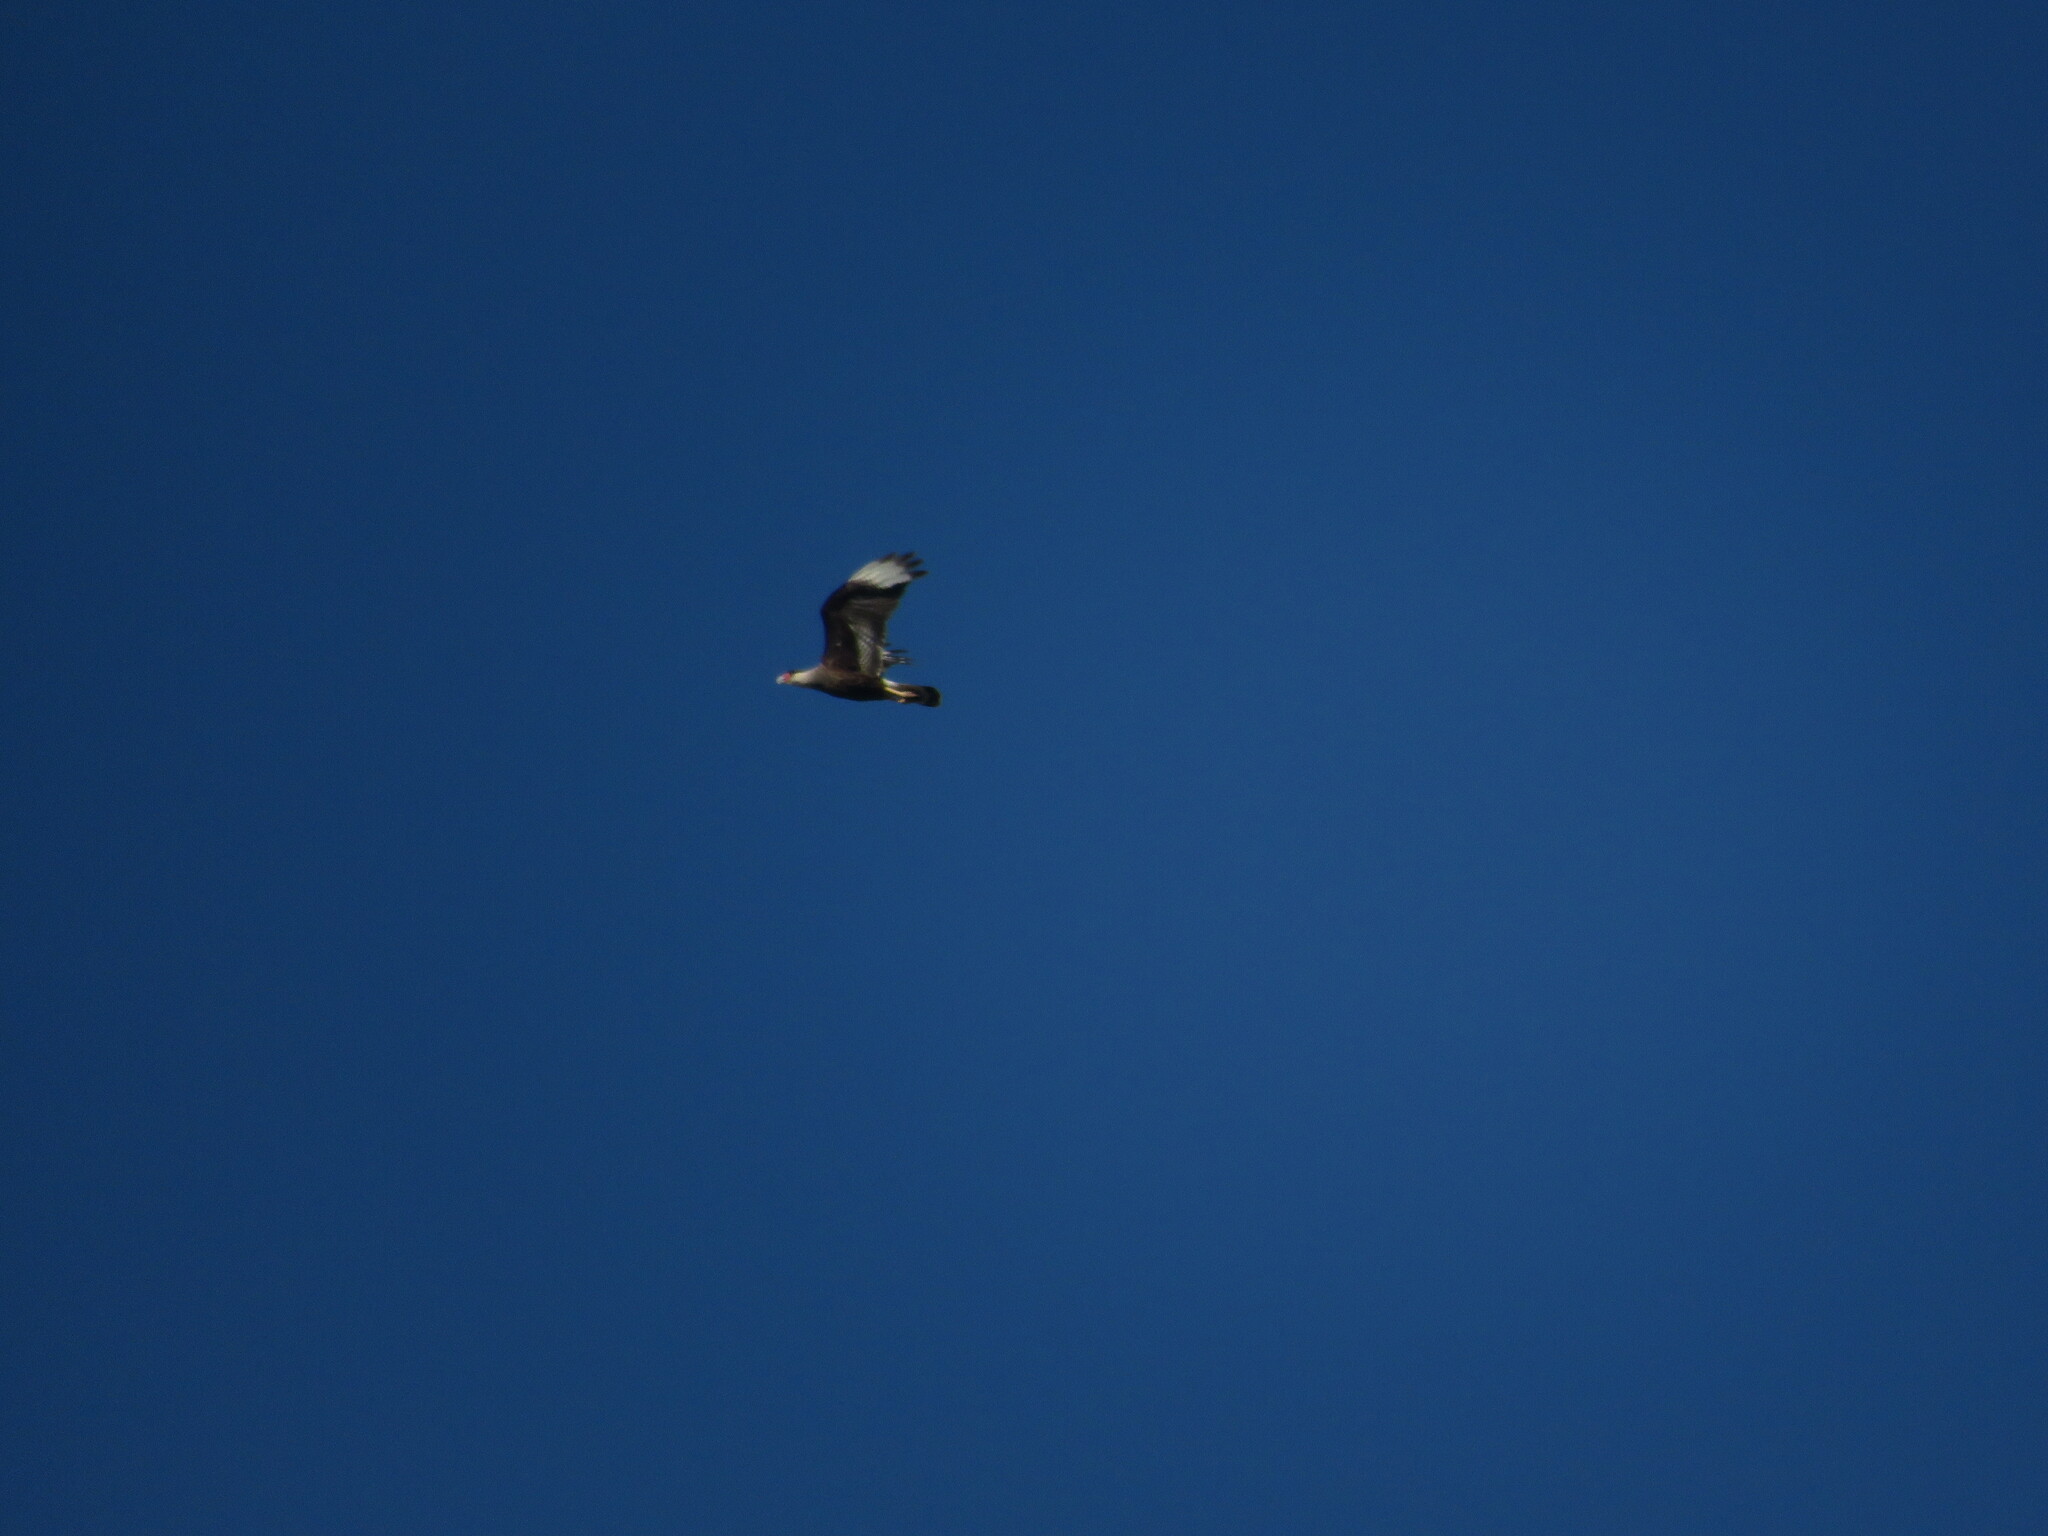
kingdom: Animalia
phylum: Chordata
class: Aves
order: Falconiformes
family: Falconidae
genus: Caracara
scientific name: Caracara plancus
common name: Southern caracara
